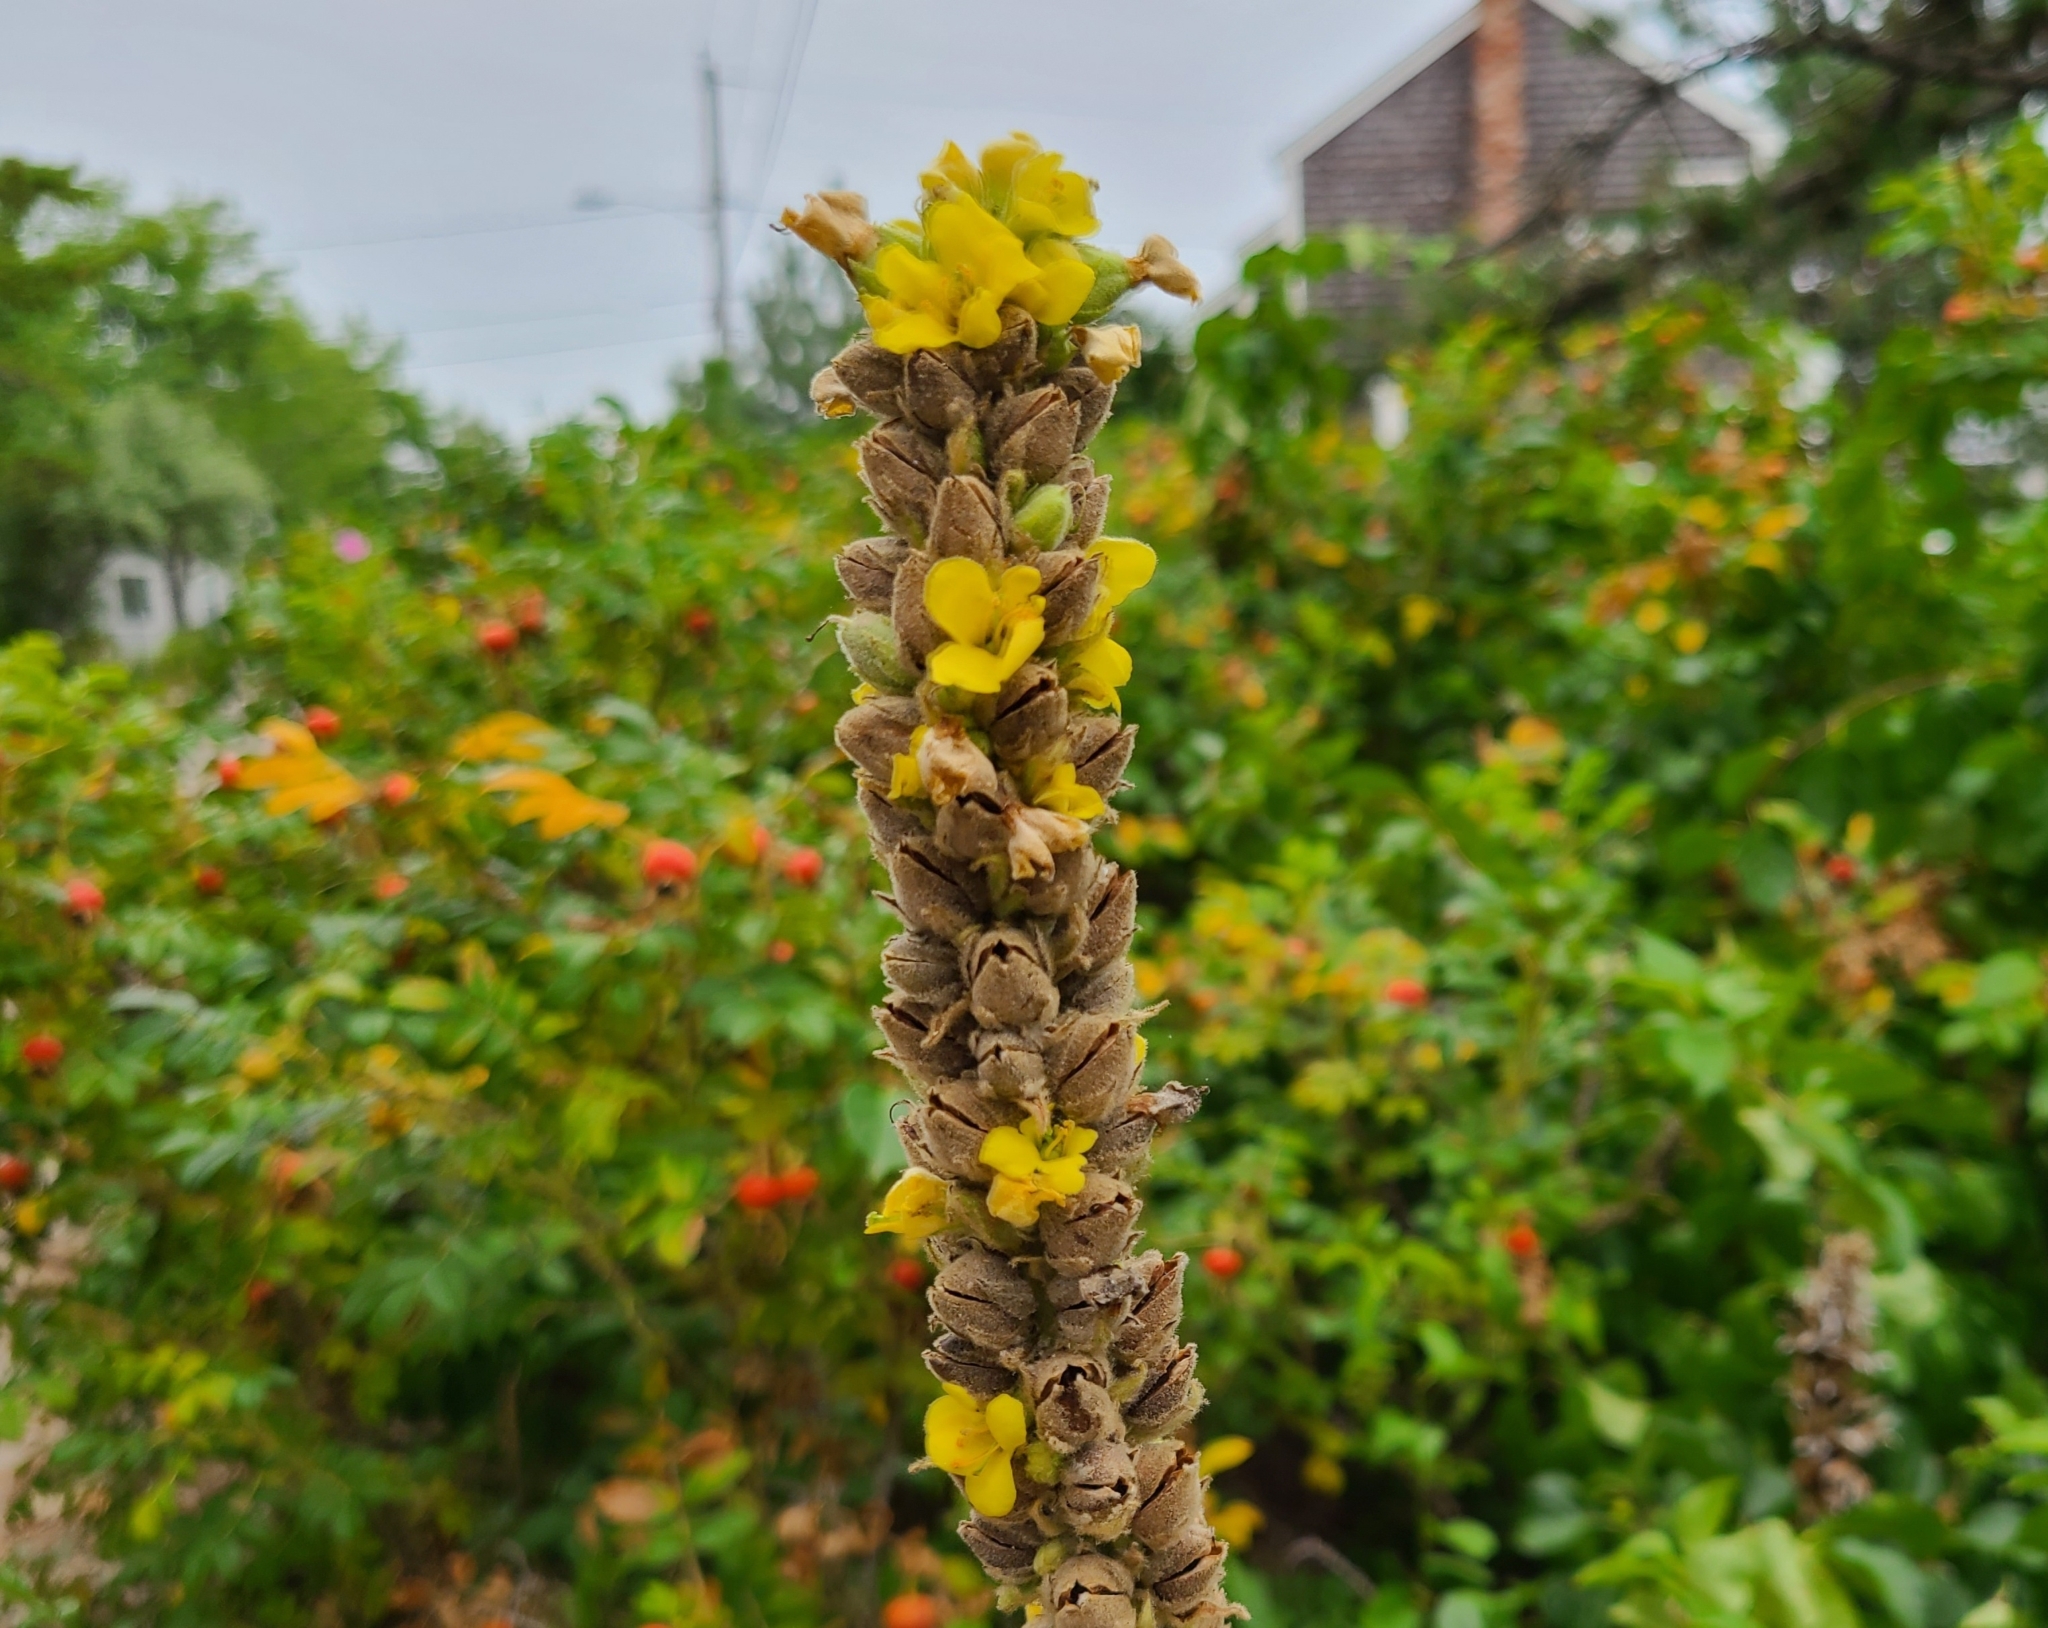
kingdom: Plantae
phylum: Tracheophyta
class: Magnoliopsida
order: Lamiales
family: Scrophulariaceae
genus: Verbascum
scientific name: Verbascum thapsus
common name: Common mullein
